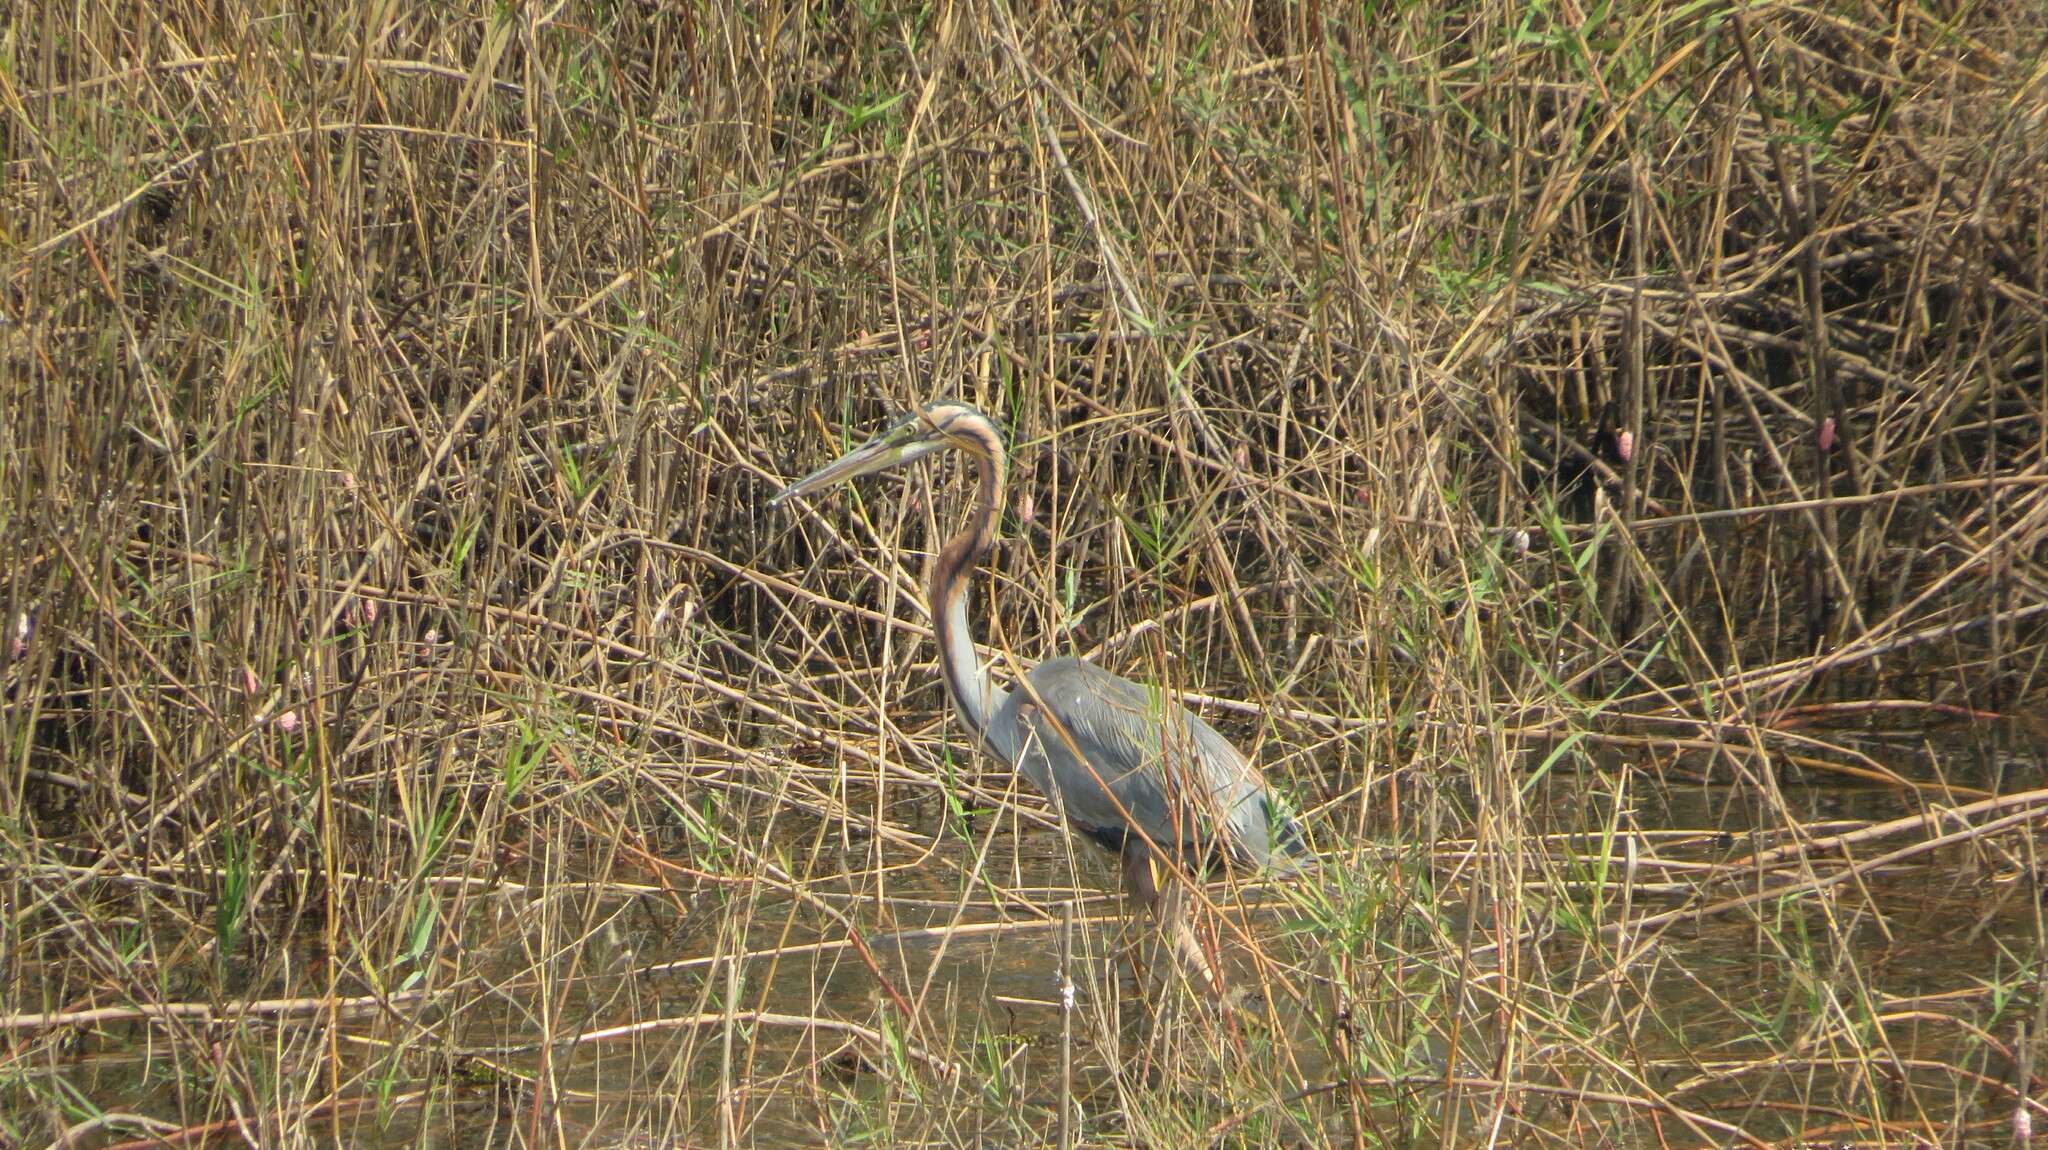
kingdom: Animalia
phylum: Chordata
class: Aves
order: Pelecaniformes
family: Ardeidae
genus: Ardea
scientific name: Ardea purpurea
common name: Purple heron
